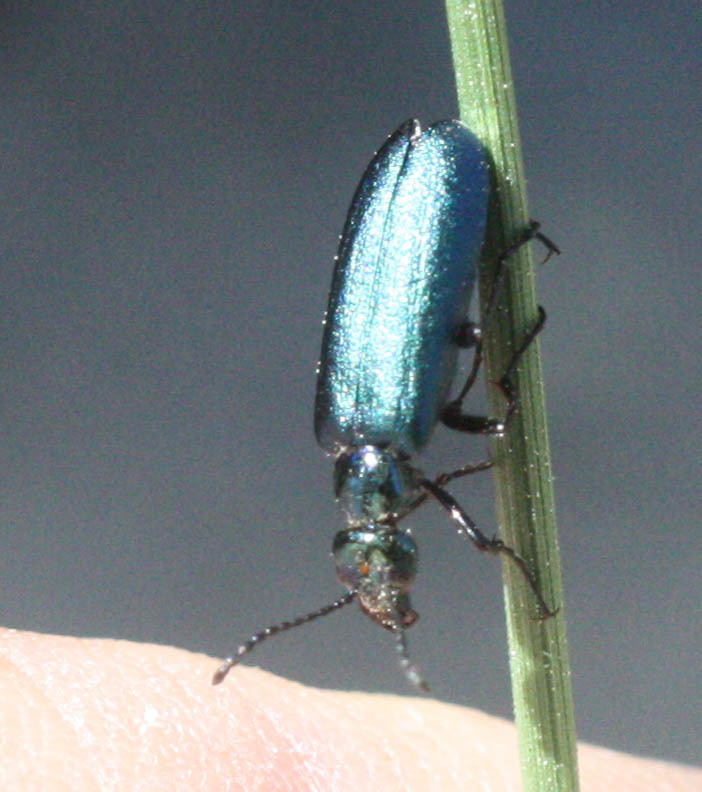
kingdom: Animalia
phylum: Arthropoda
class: Insecta
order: Coleoptera
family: Meloidae
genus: Lytta
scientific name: Lytta stygica
